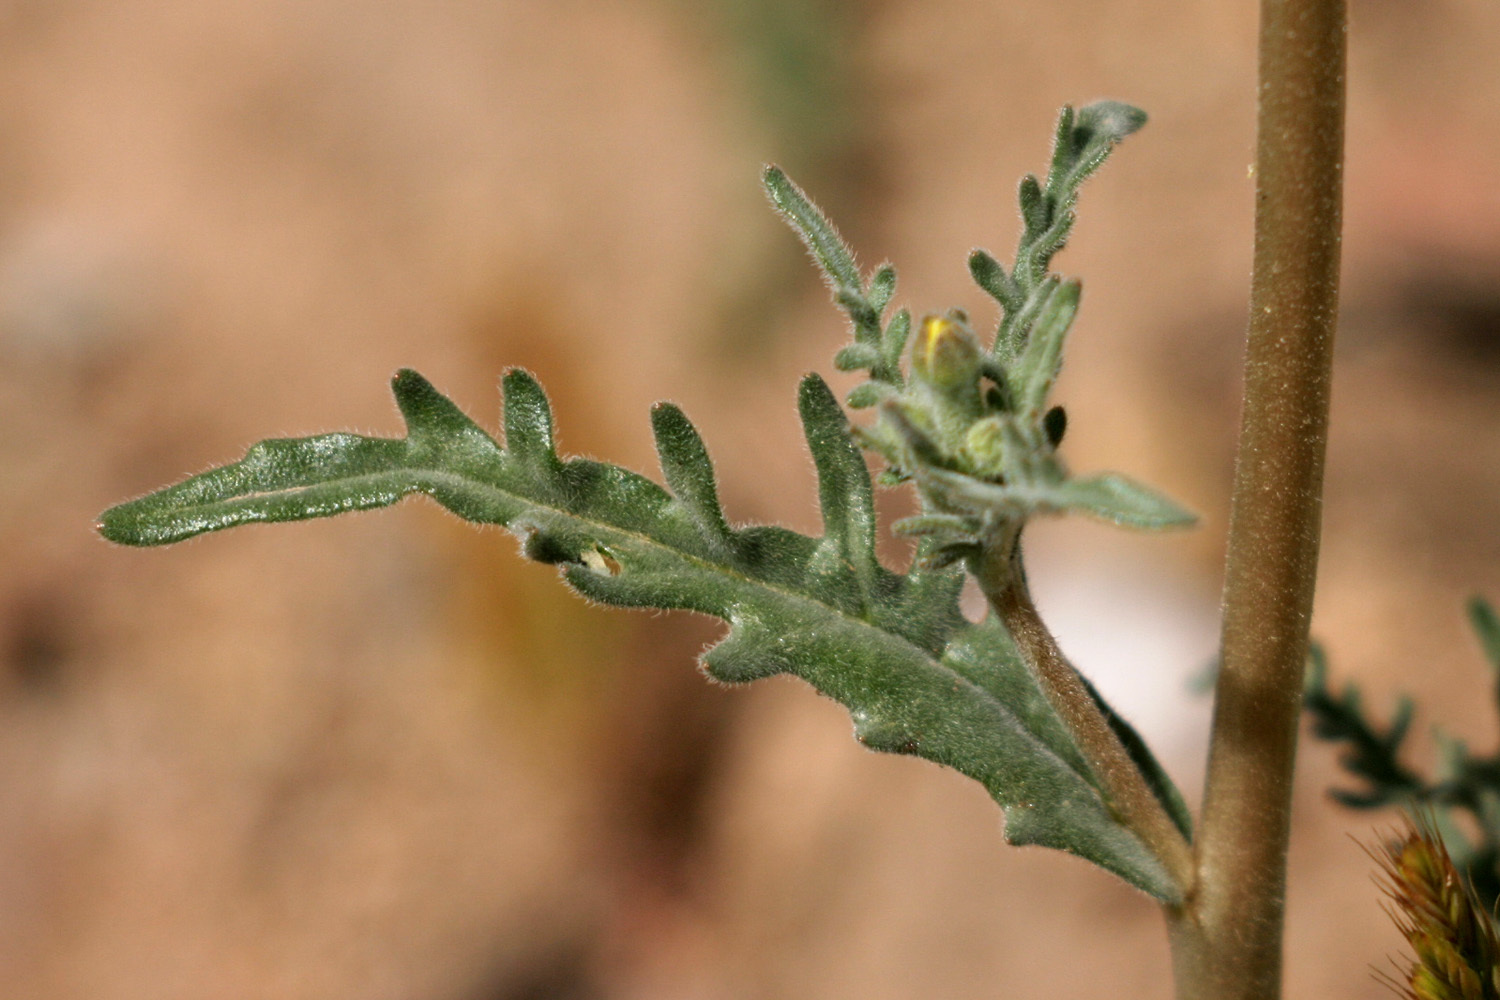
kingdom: Plantae
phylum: Tracheophyta
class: Magnoliopsida
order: Cornales
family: Loasaceae
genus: Mentzelia
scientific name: Mentzelia albicaulis
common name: White-stem blazingstar
